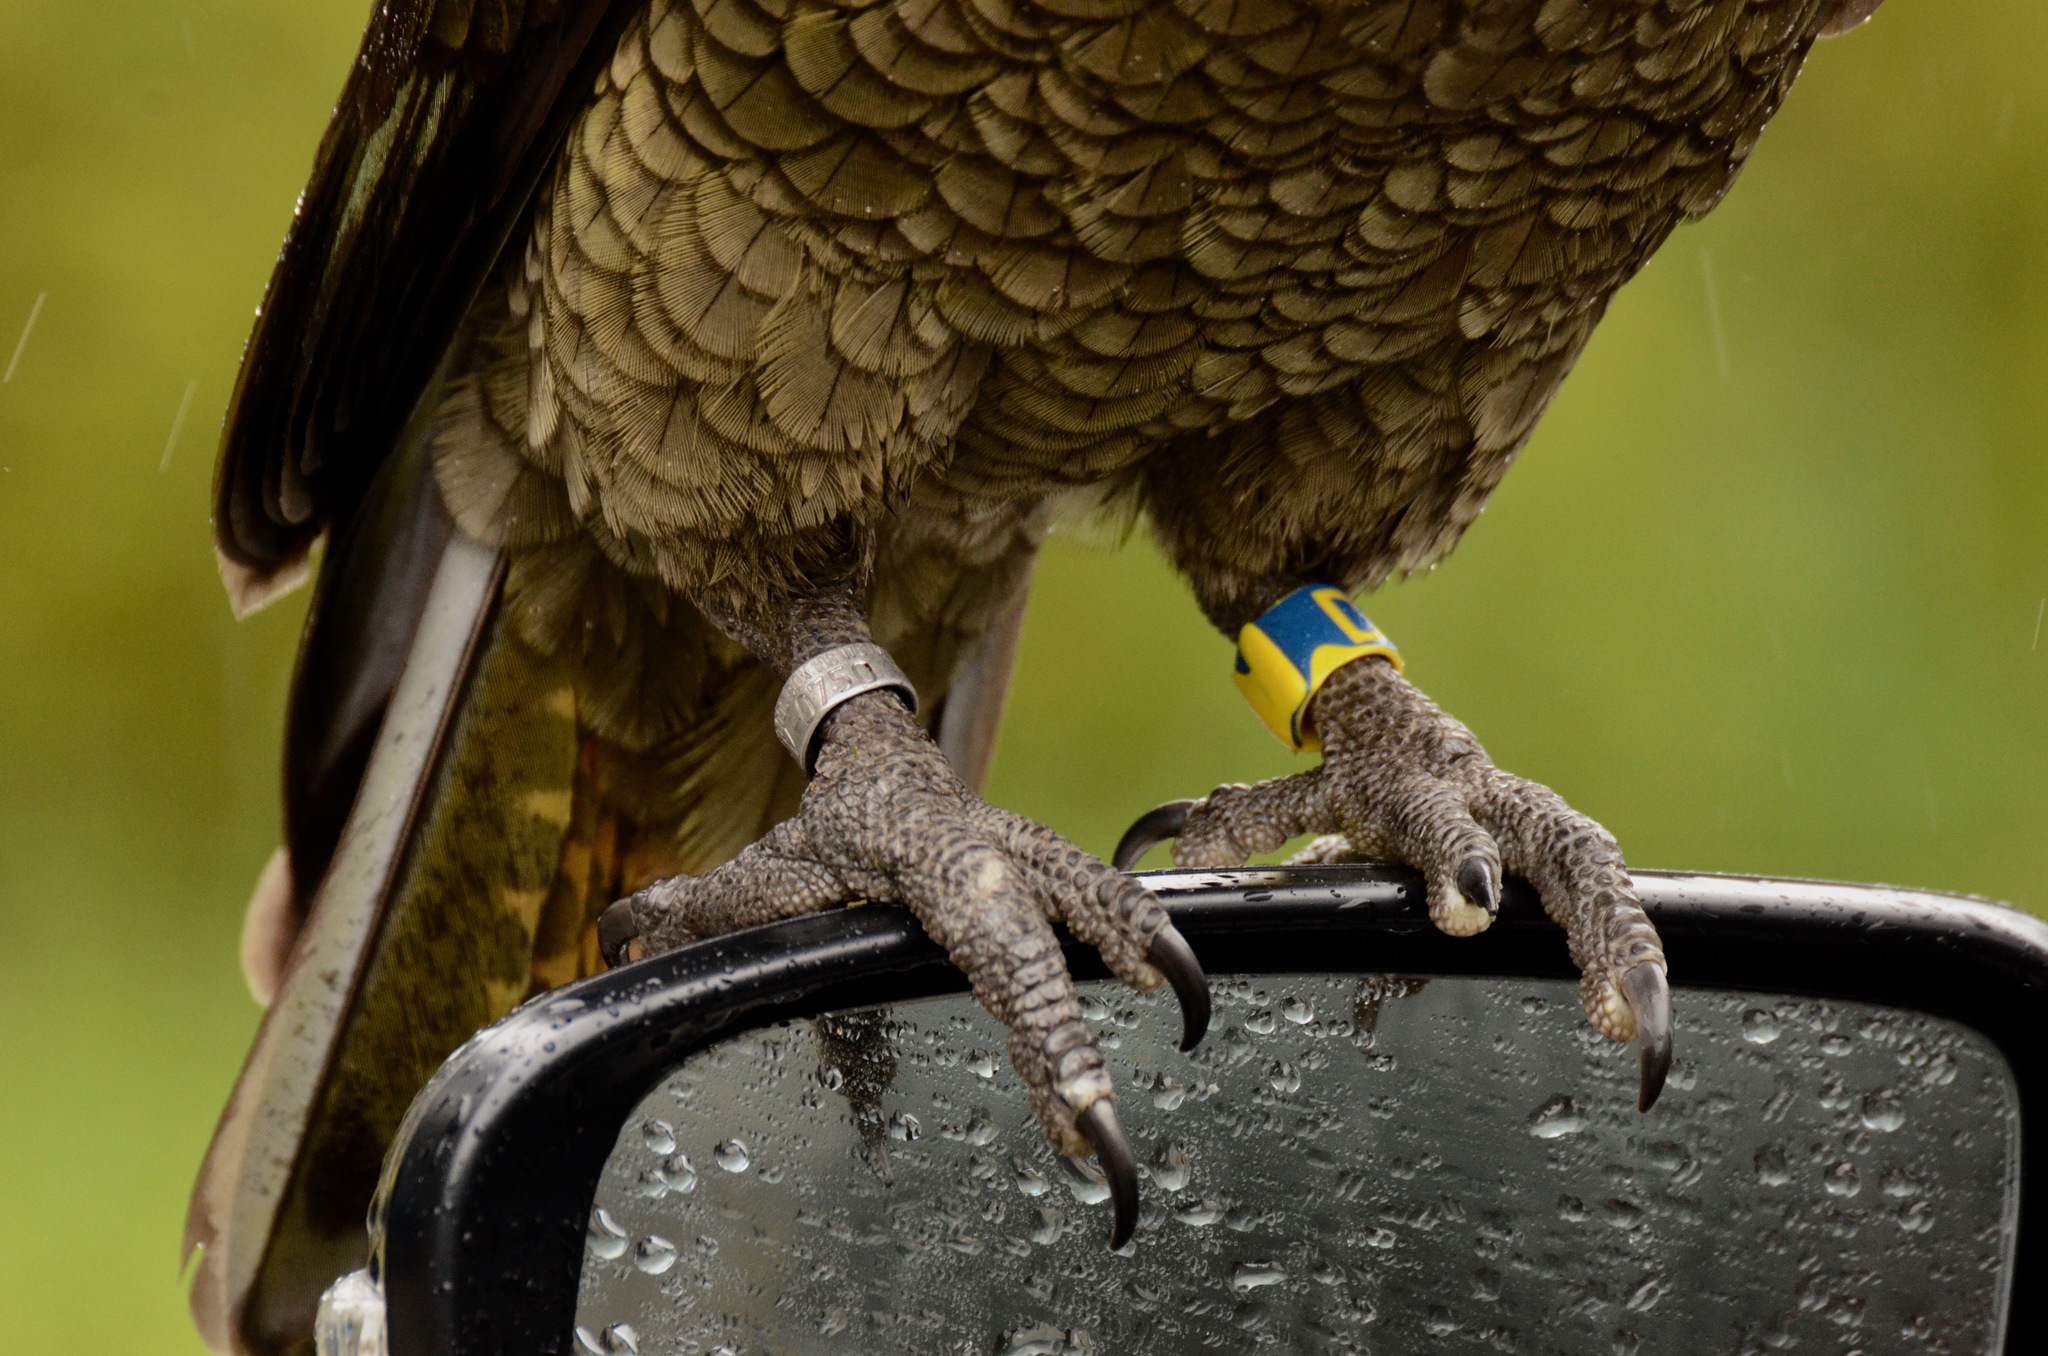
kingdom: Animalia
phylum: Chordata
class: Aves
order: Psittaciformes
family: Psittacidae
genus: Nestor
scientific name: Nestor notabilis
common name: Kea
